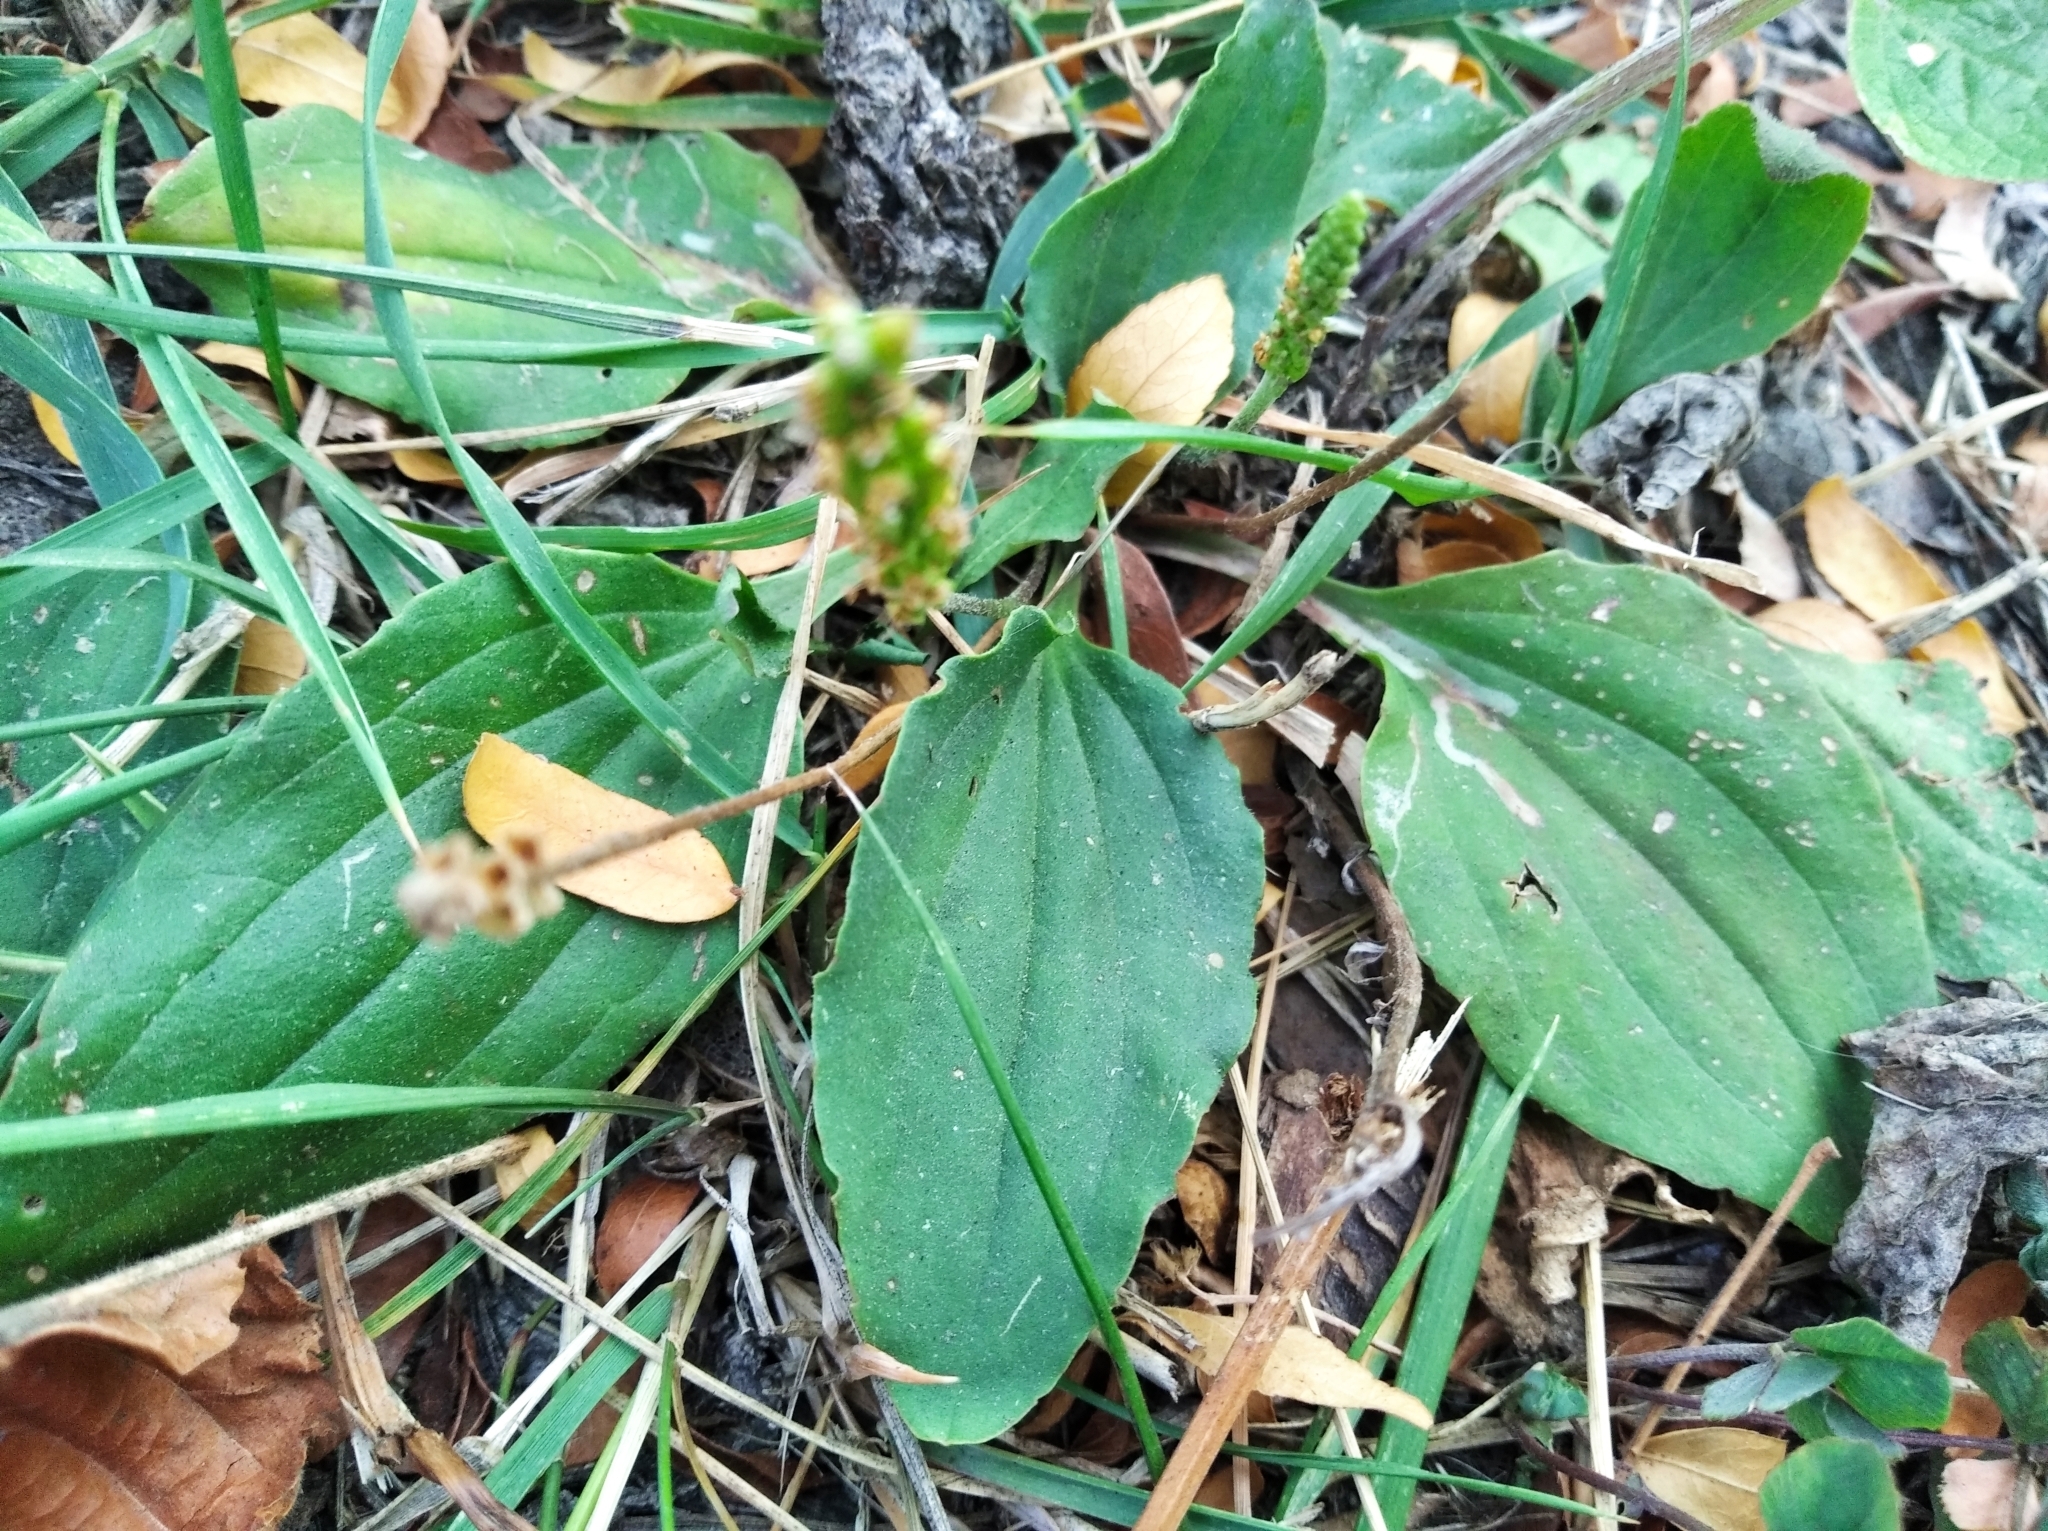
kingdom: Plantae
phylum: Tracheophyta
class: Magnoliopsida
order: Lamiales
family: Plantaginaceae
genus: Plantago
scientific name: Plantago major
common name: Common plantain
